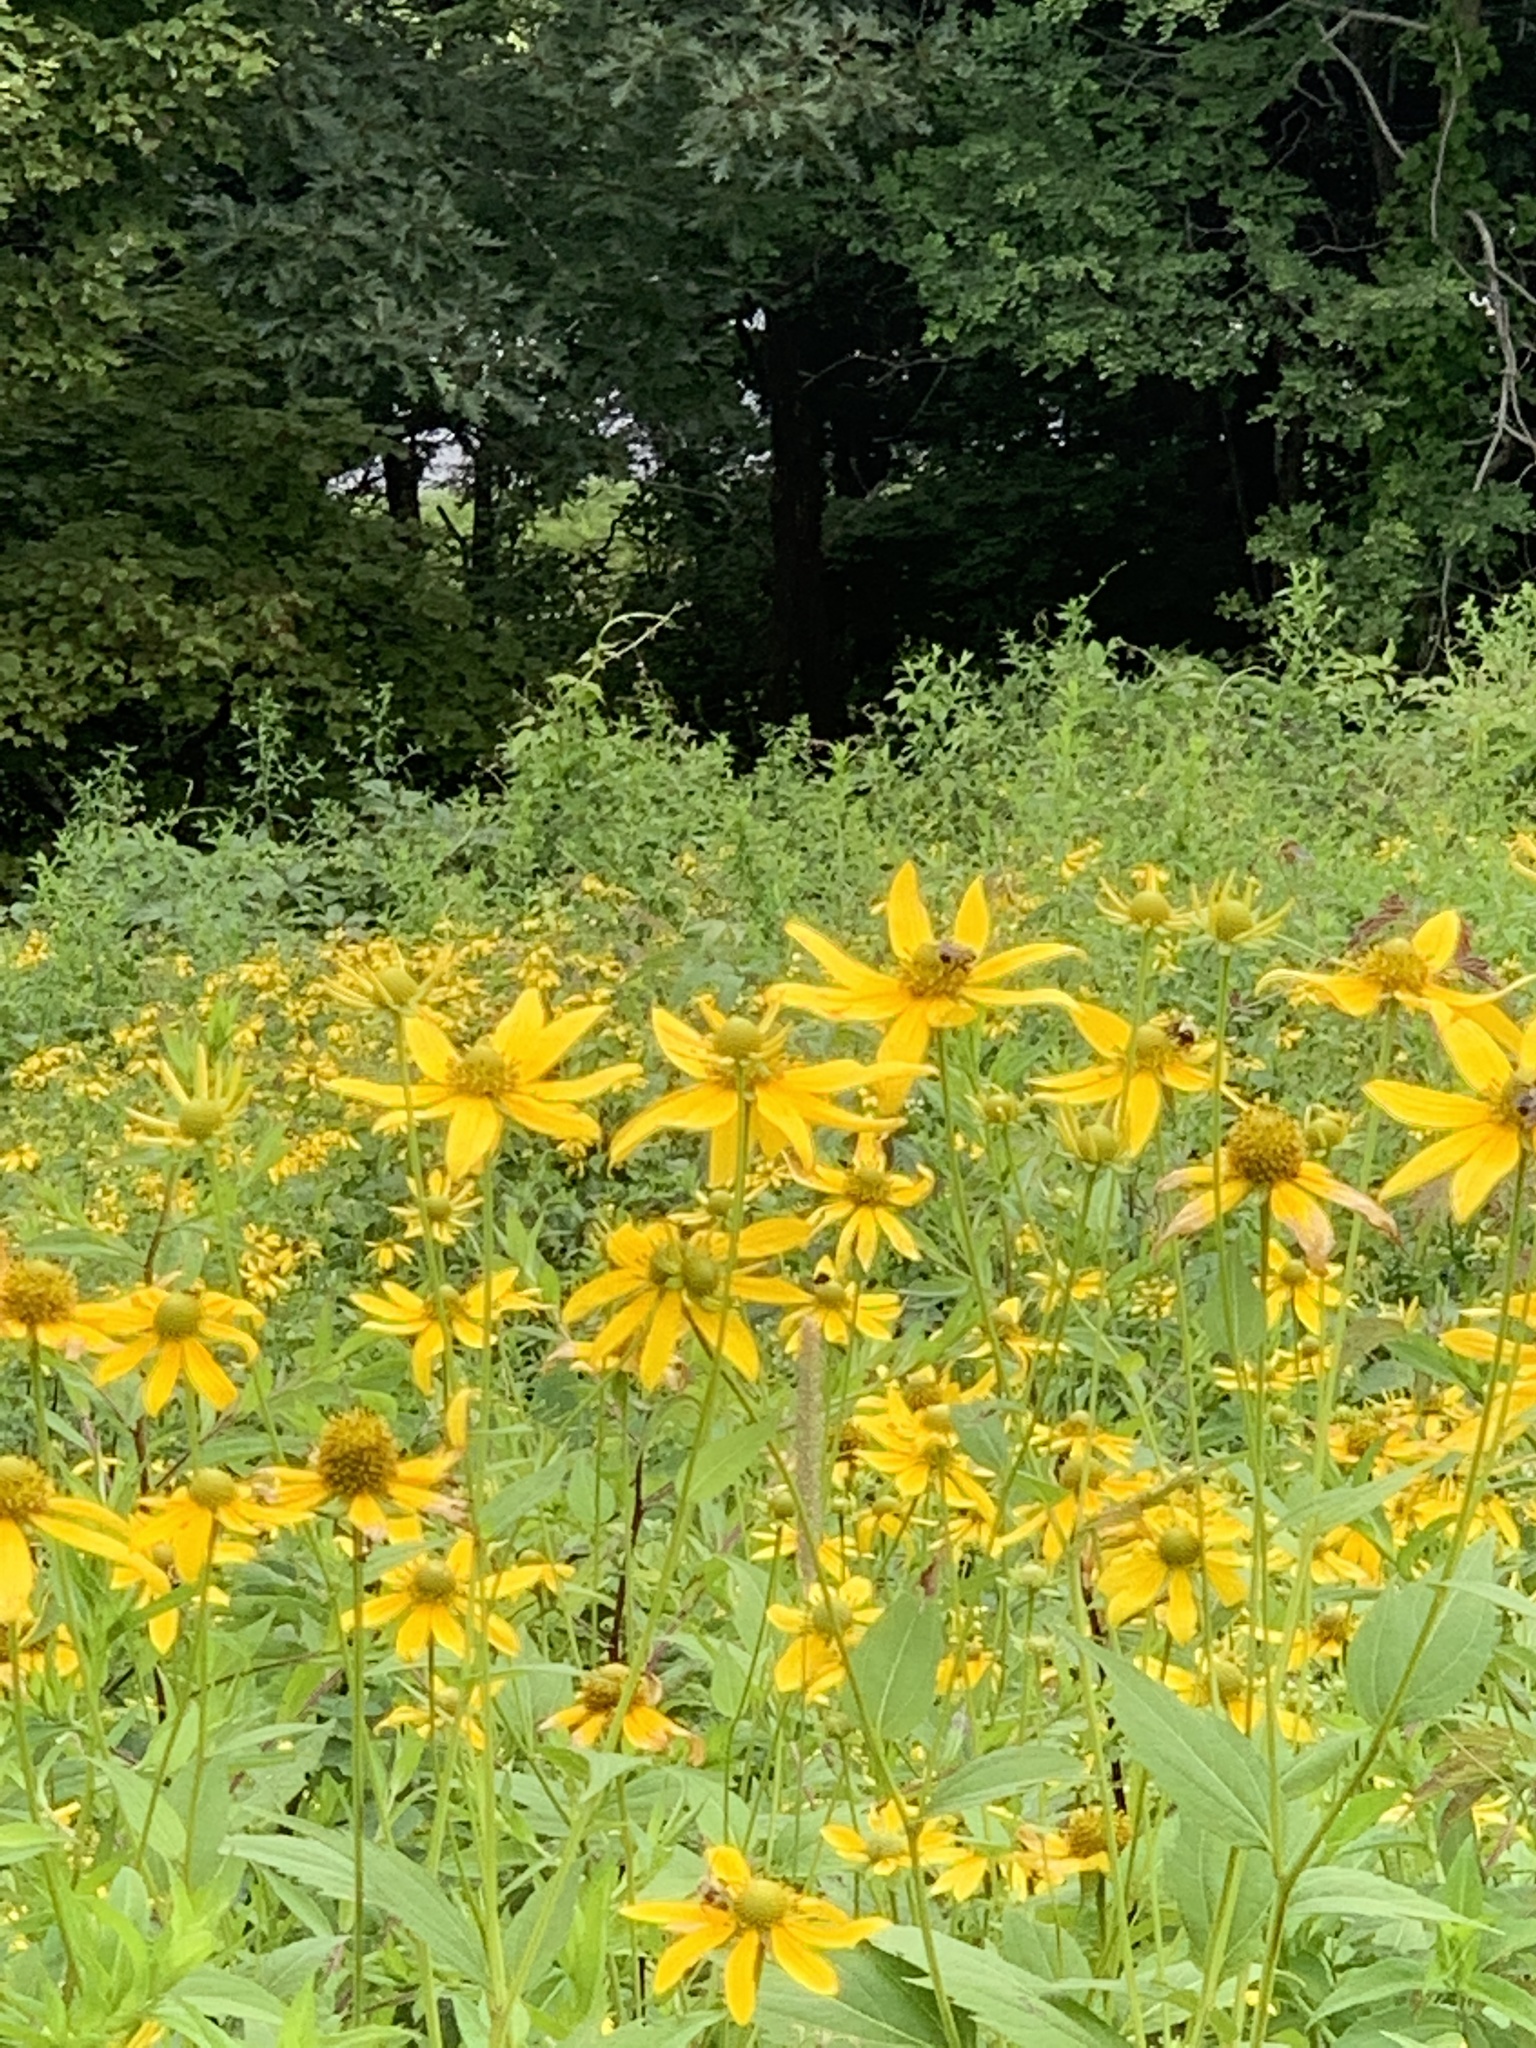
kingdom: Plantae
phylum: Tracheophyta
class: Magnoliopsida
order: Asterales
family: Asteraceae
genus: Rudbeckia
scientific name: Rudbeckia laciniata
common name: Coneflower
